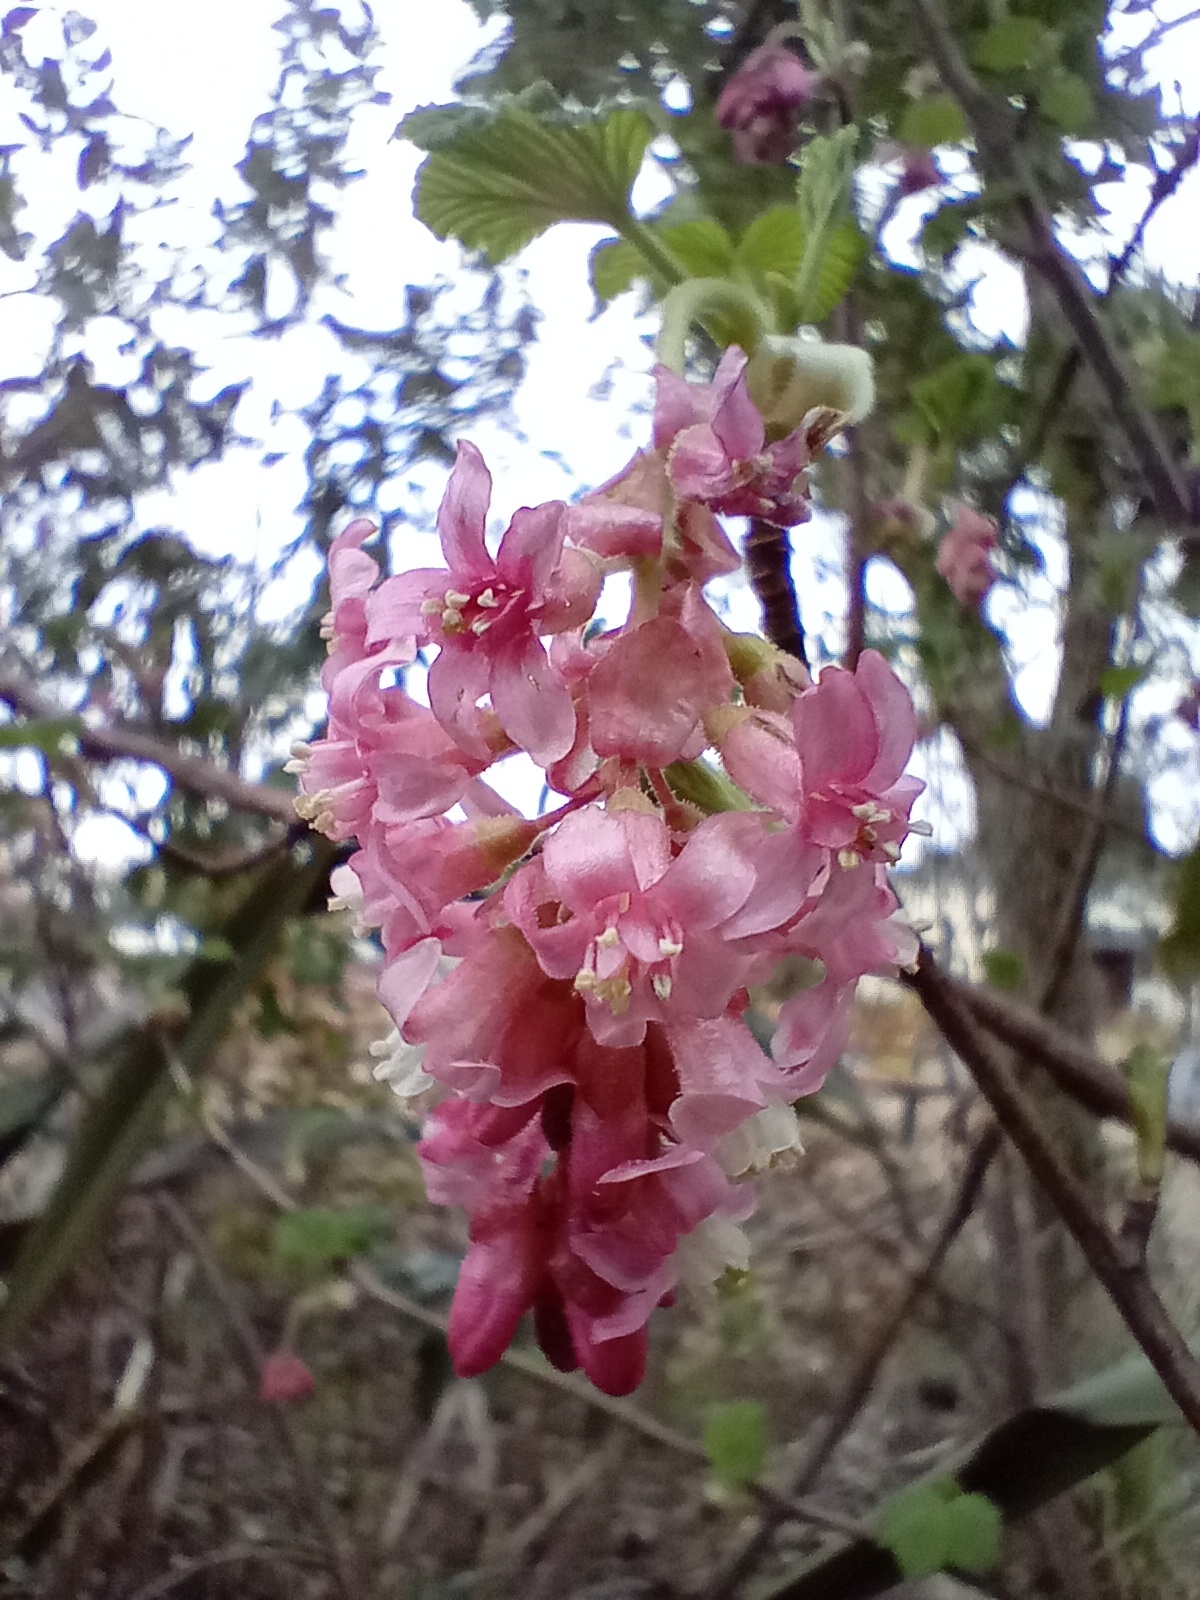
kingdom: Plantae
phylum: Tracheophyta
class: Magnoliopsida
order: Saxifragales
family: Grossulariaceae
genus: Ribes
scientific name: Ribes sanguineum
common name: Flowering currant
